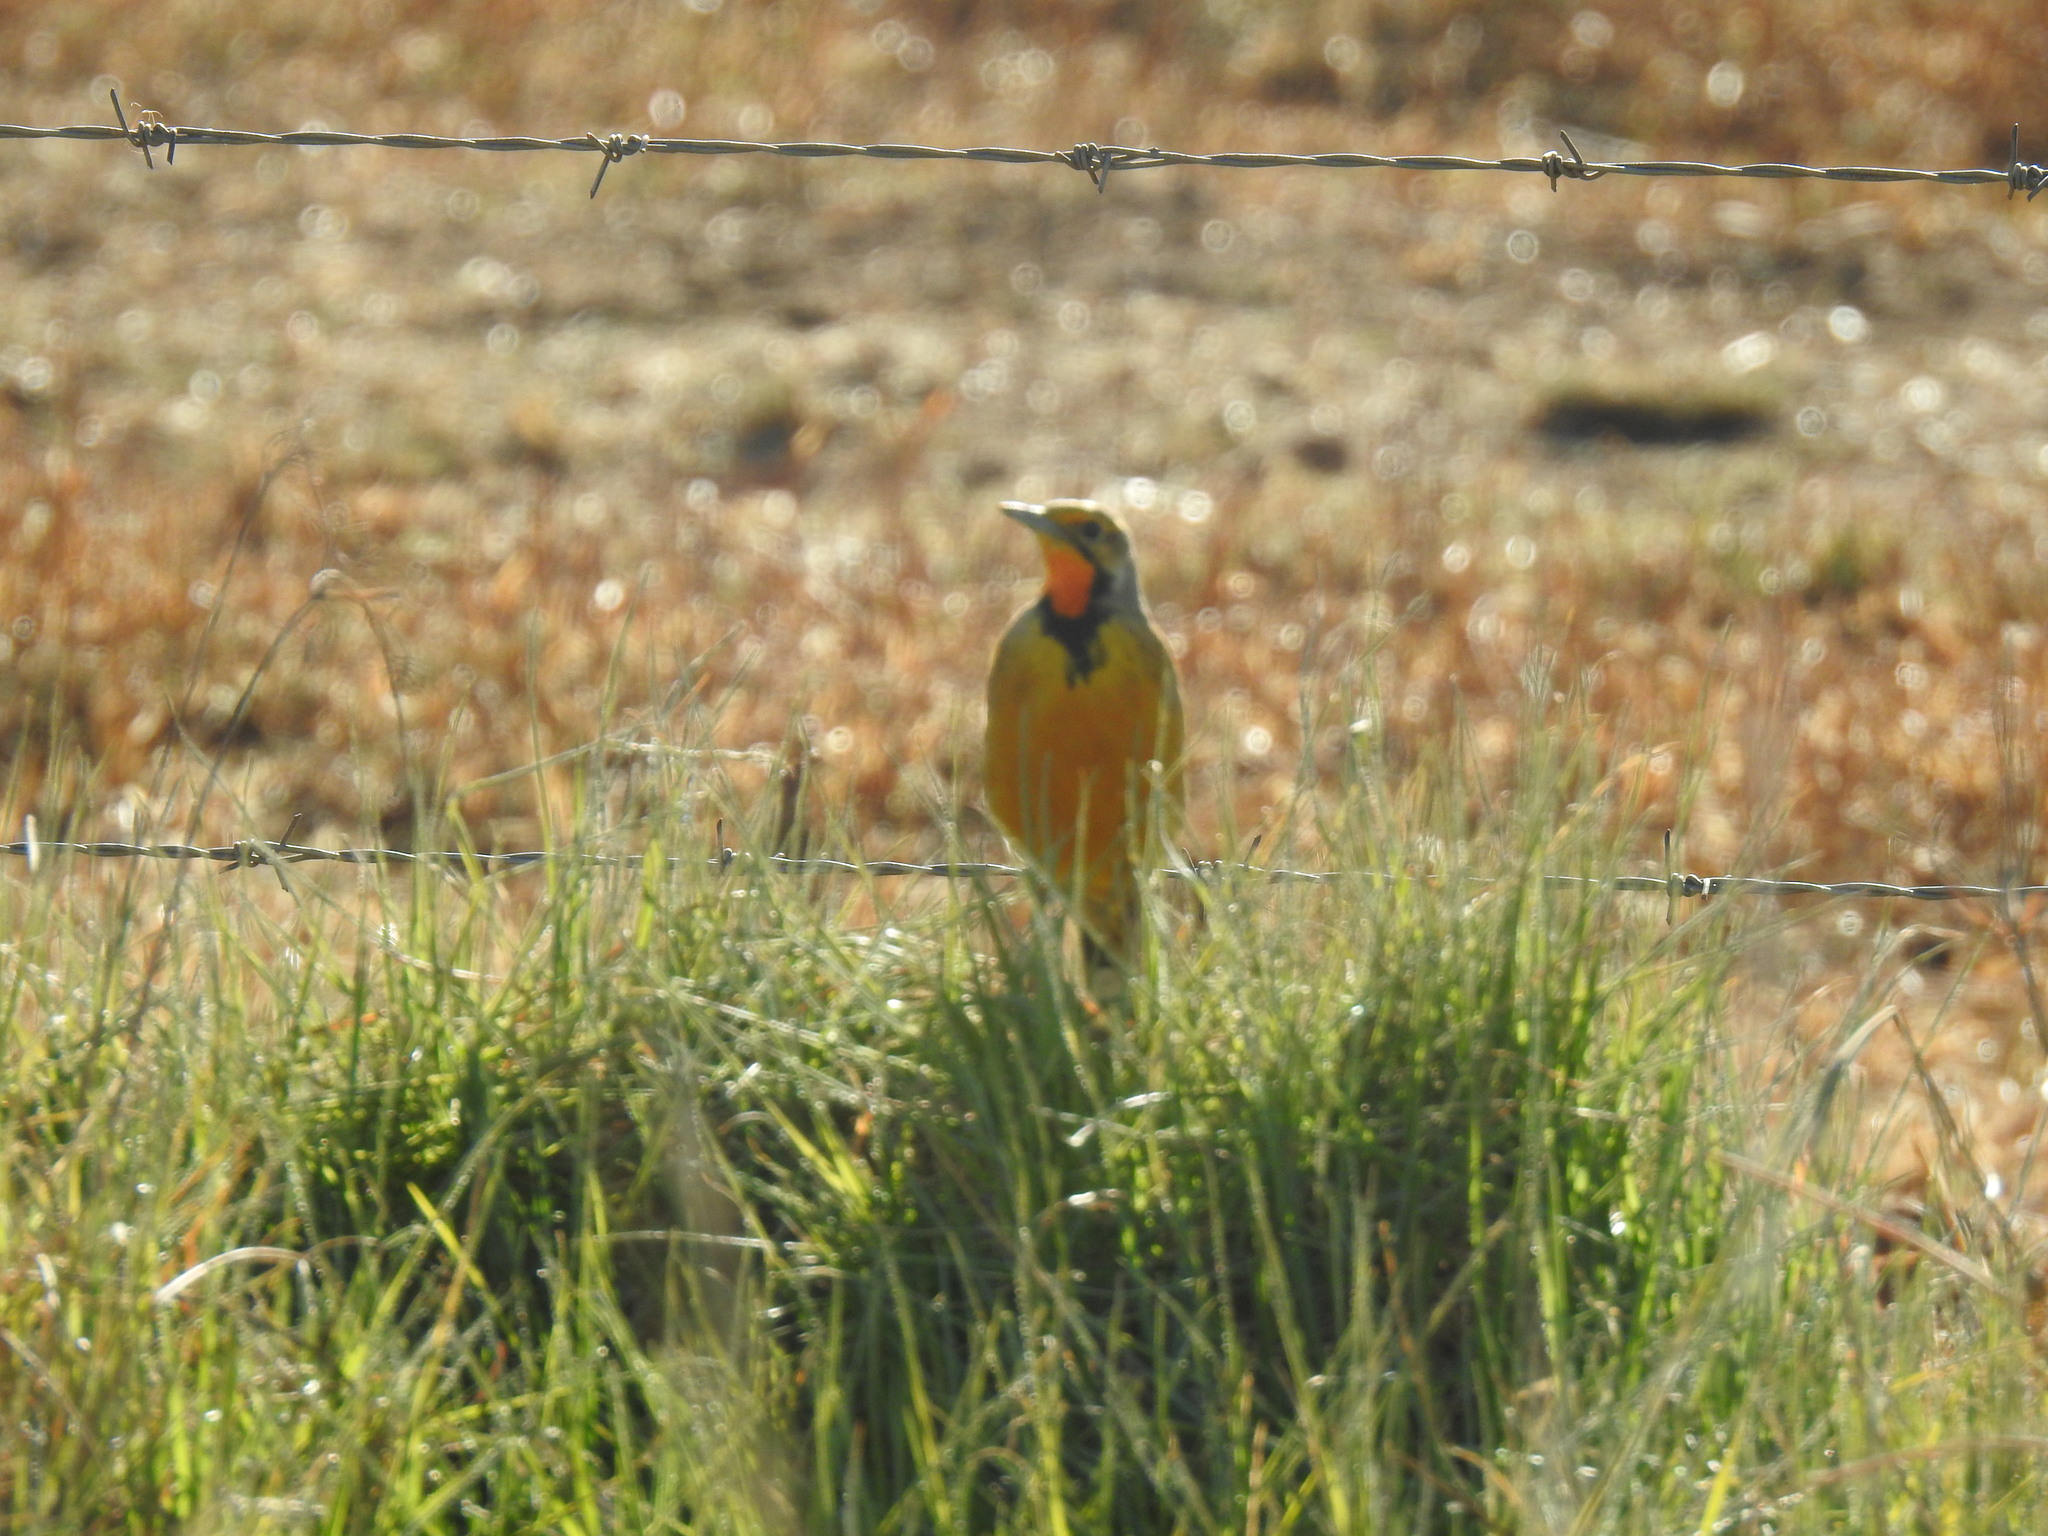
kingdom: Animalia
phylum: Chordata
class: Aves
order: Passeriformes
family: Motacillidae
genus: Macronyx
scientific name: Macronyx capensis
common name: Cape longclaw
